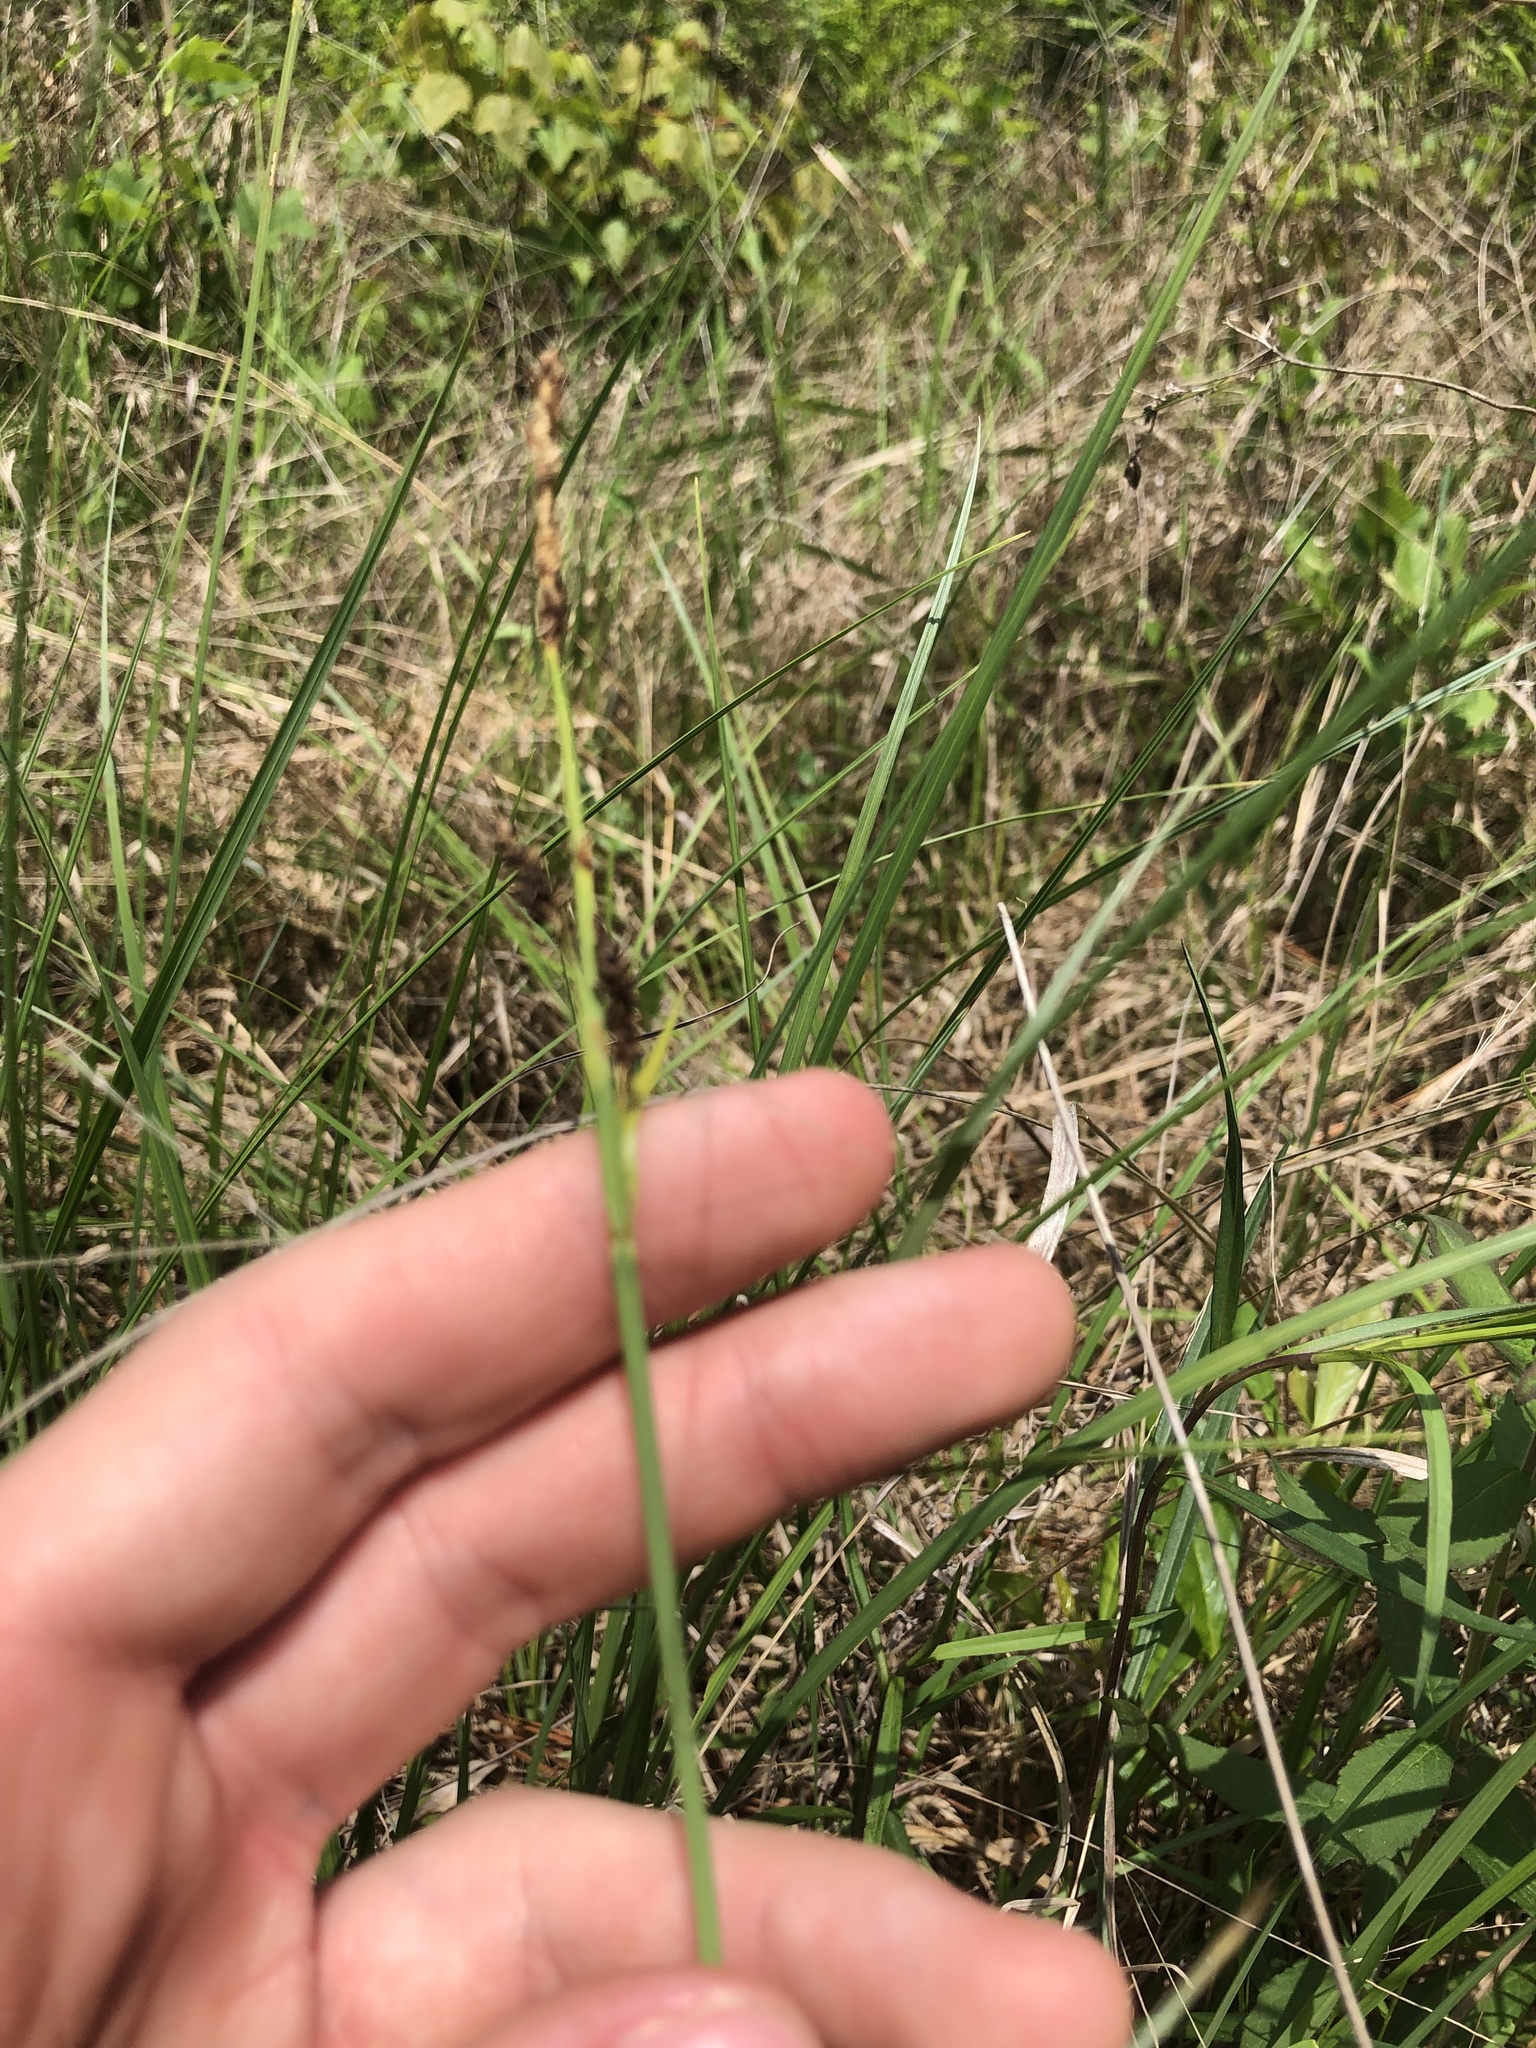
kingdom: Plantae
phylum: Tracheophyta
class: Liliopsida
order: Poales
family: Cyperaceae
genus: Carex
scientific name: Carex barrattii
